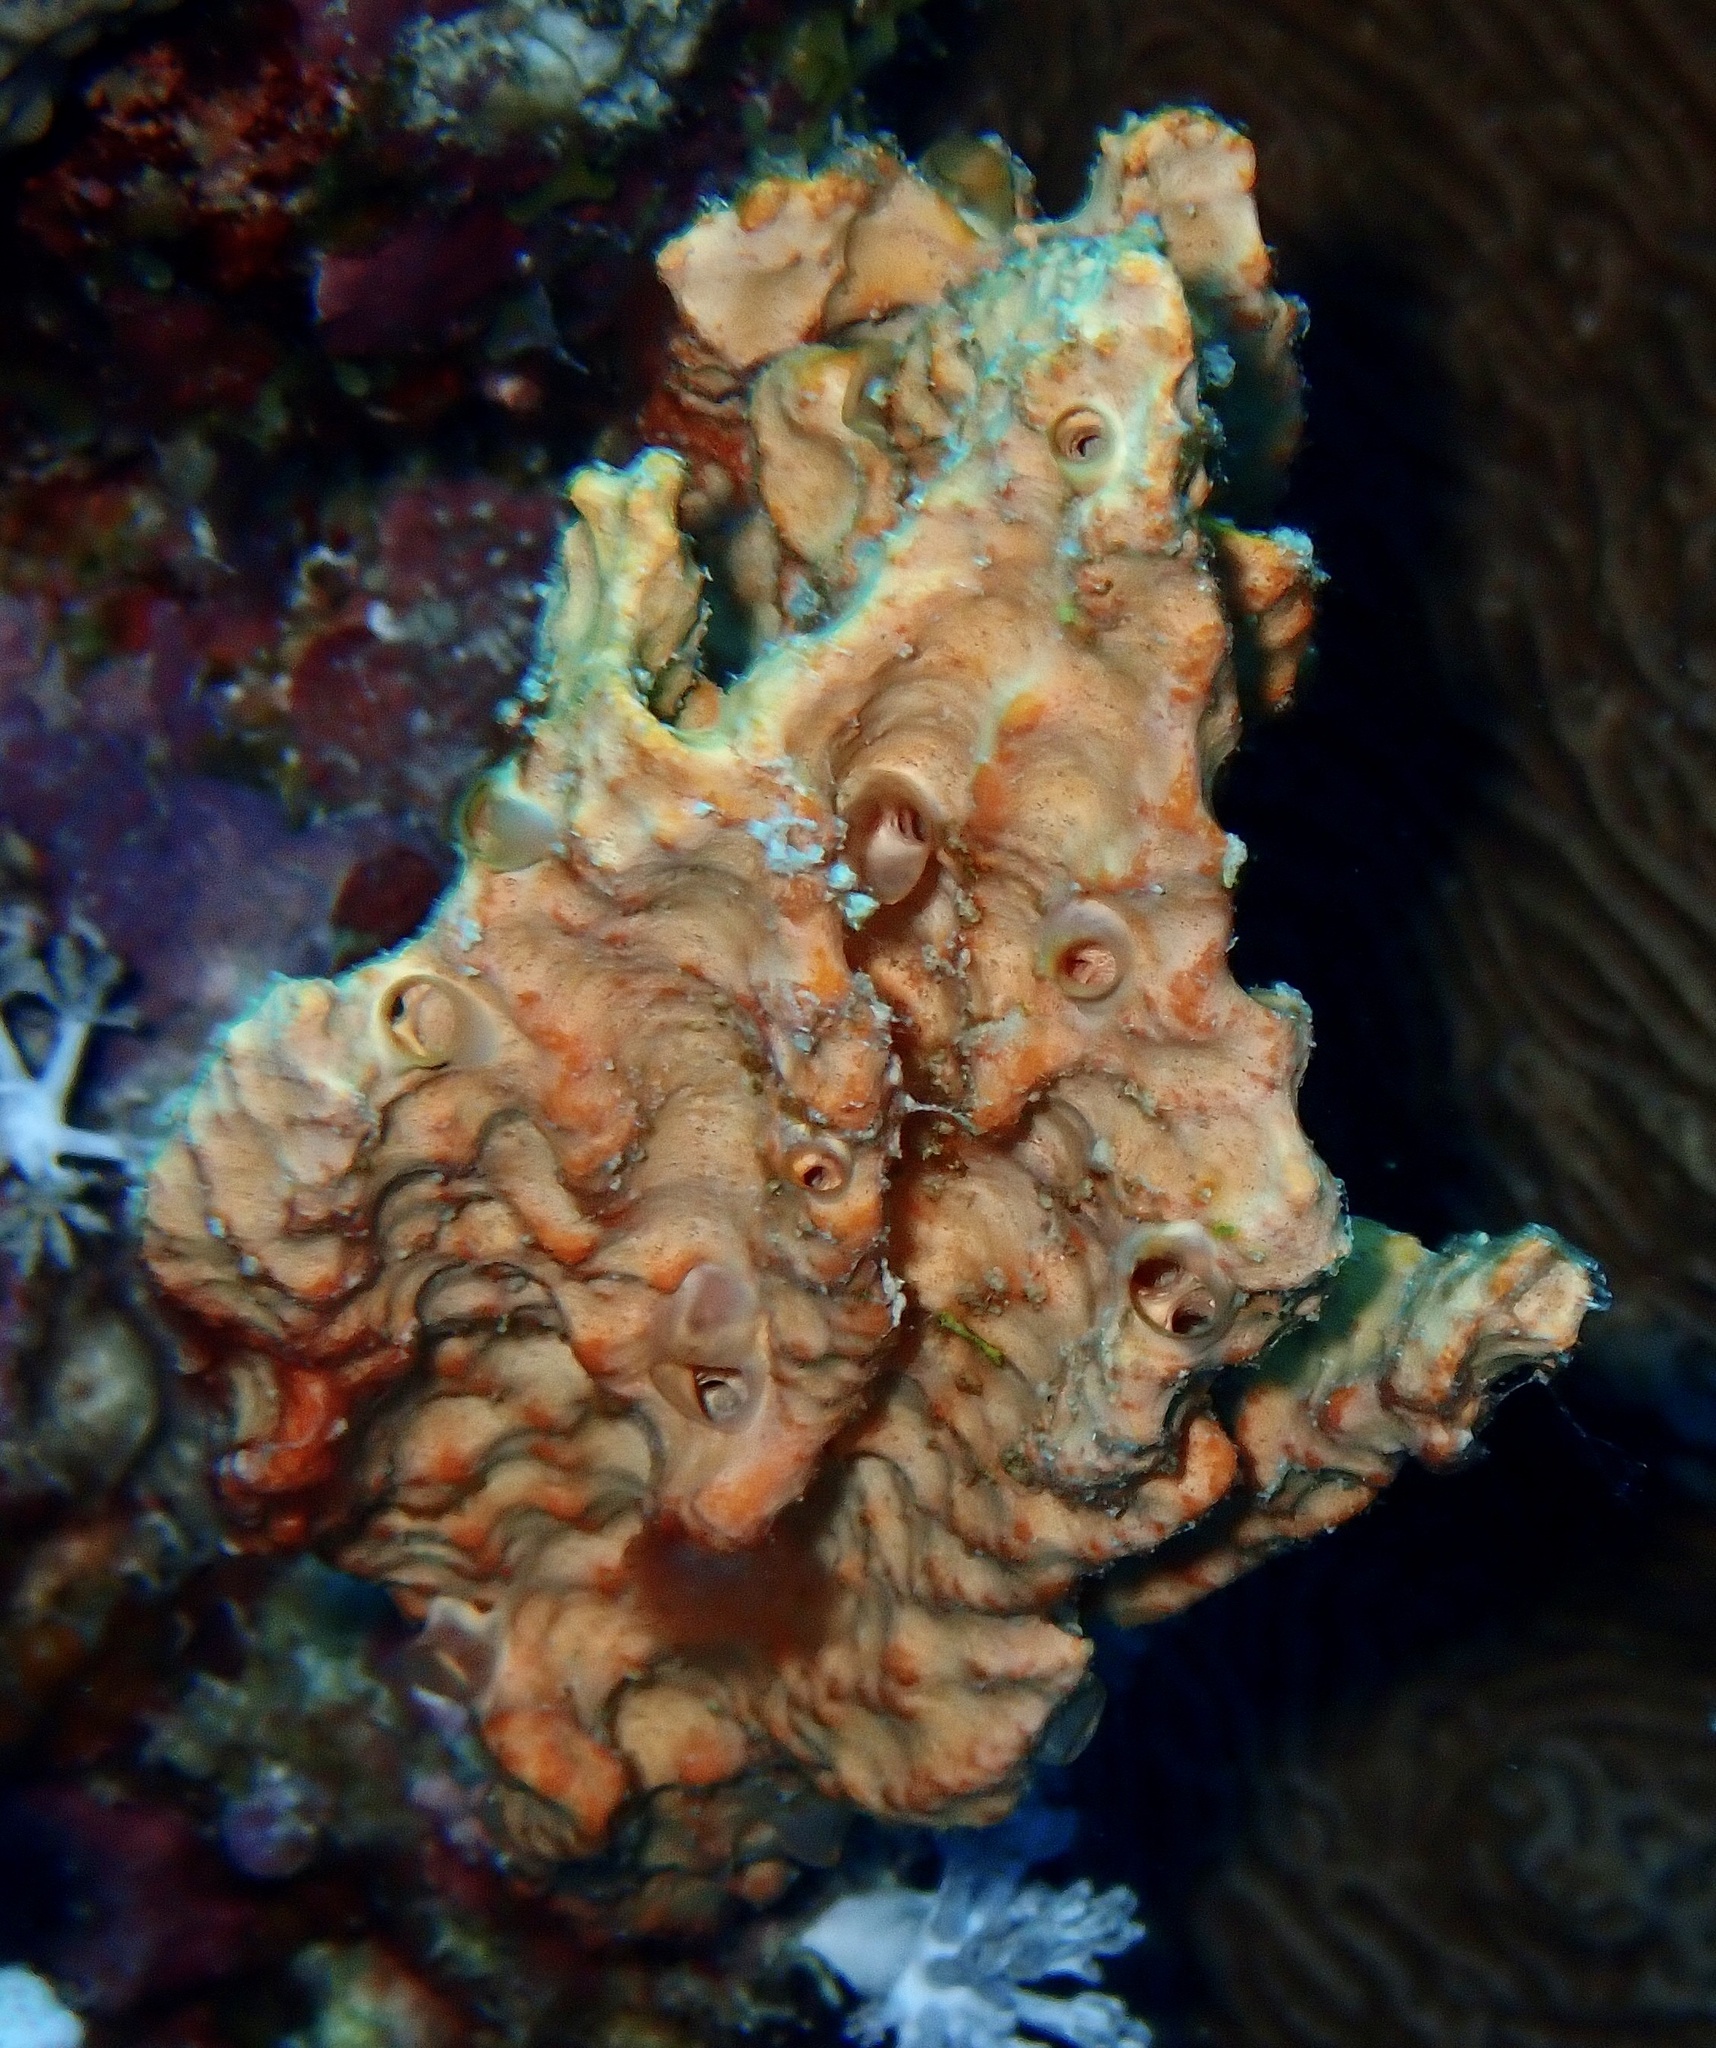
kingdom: Animalia
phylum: Porifera
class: Demospongiae
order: Scopalinida
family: Scopalinidae
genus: Stylissa
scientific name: Stylissa carteri
